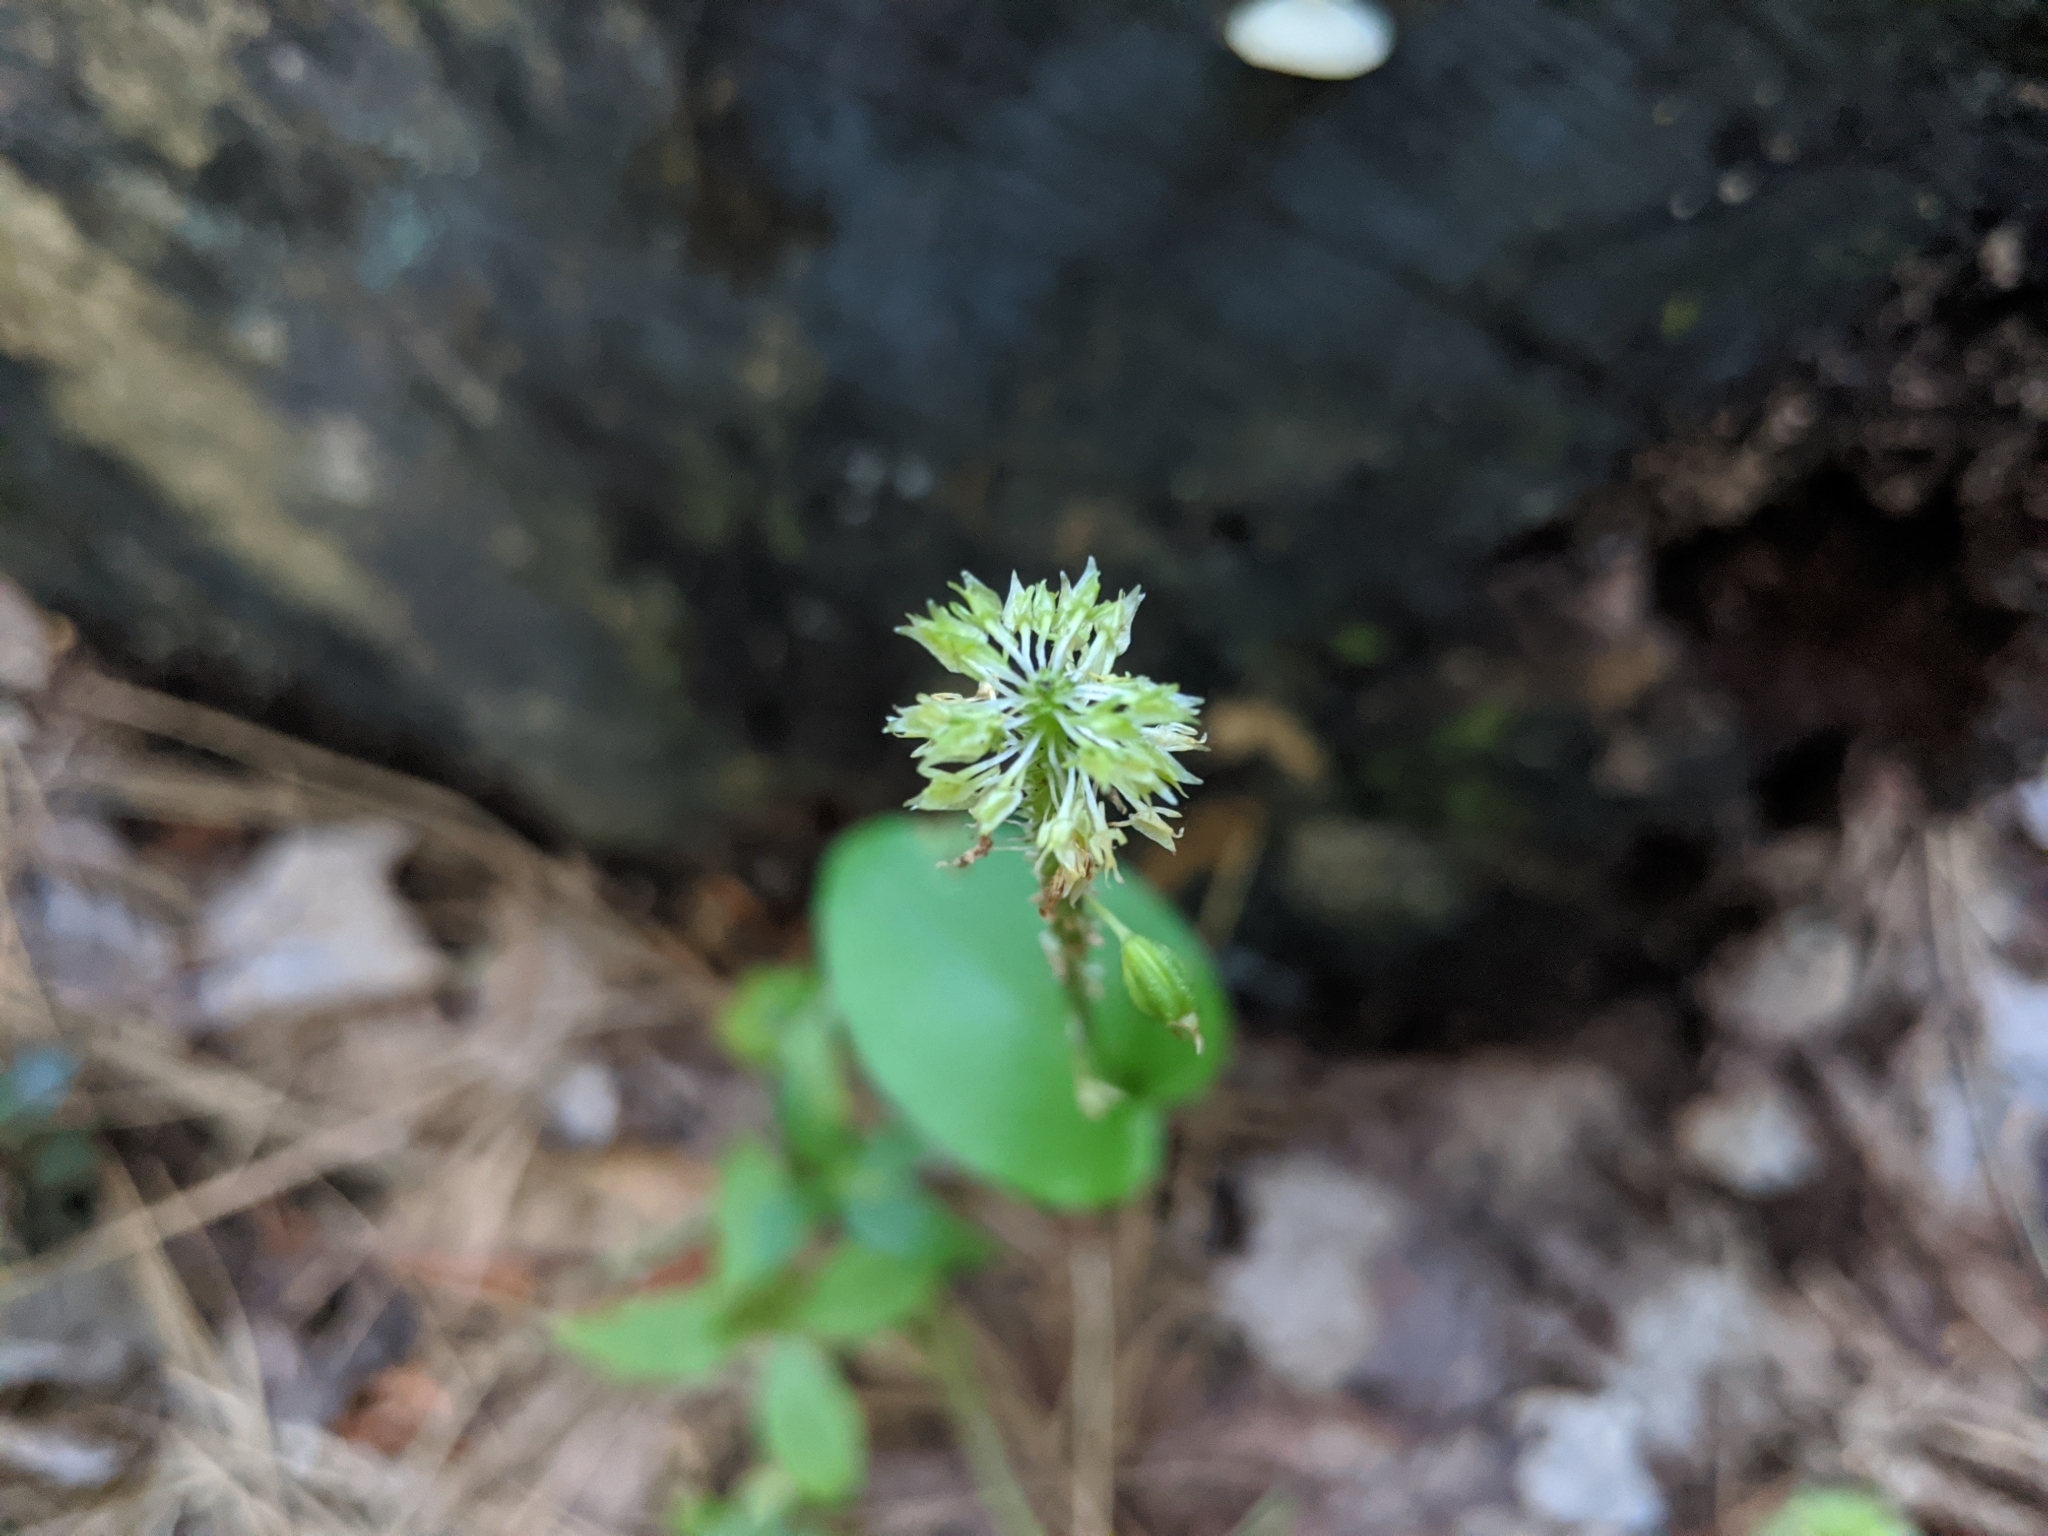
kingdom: Plantae
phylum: Tracheophyta
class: Liliopsida
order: Asparagales
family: Orchidaceae
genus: Malaxis
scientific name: Malaxis unifolia
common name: Green adder's-mouth
